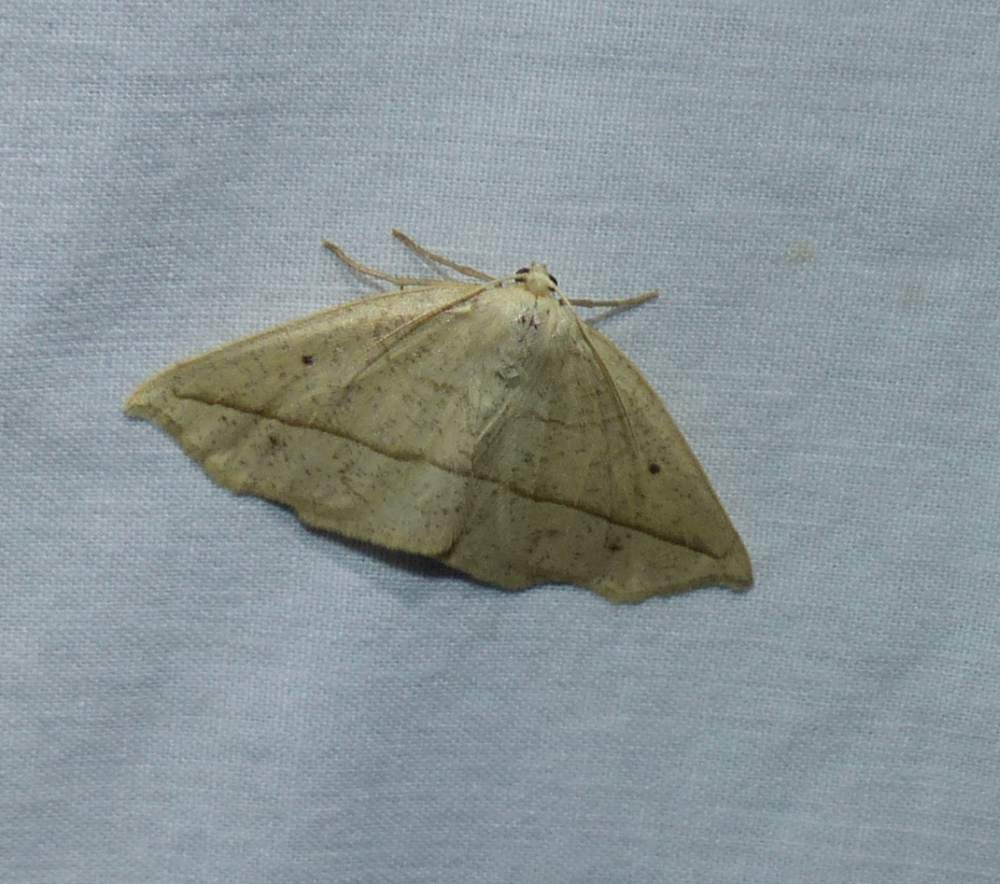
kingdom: Animalia
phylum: Arthropoda
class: Insecta
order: Lepidoptera
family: Geometridae
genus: Eusarca
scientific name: Eusarca confusaria
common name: Confused eusarca
